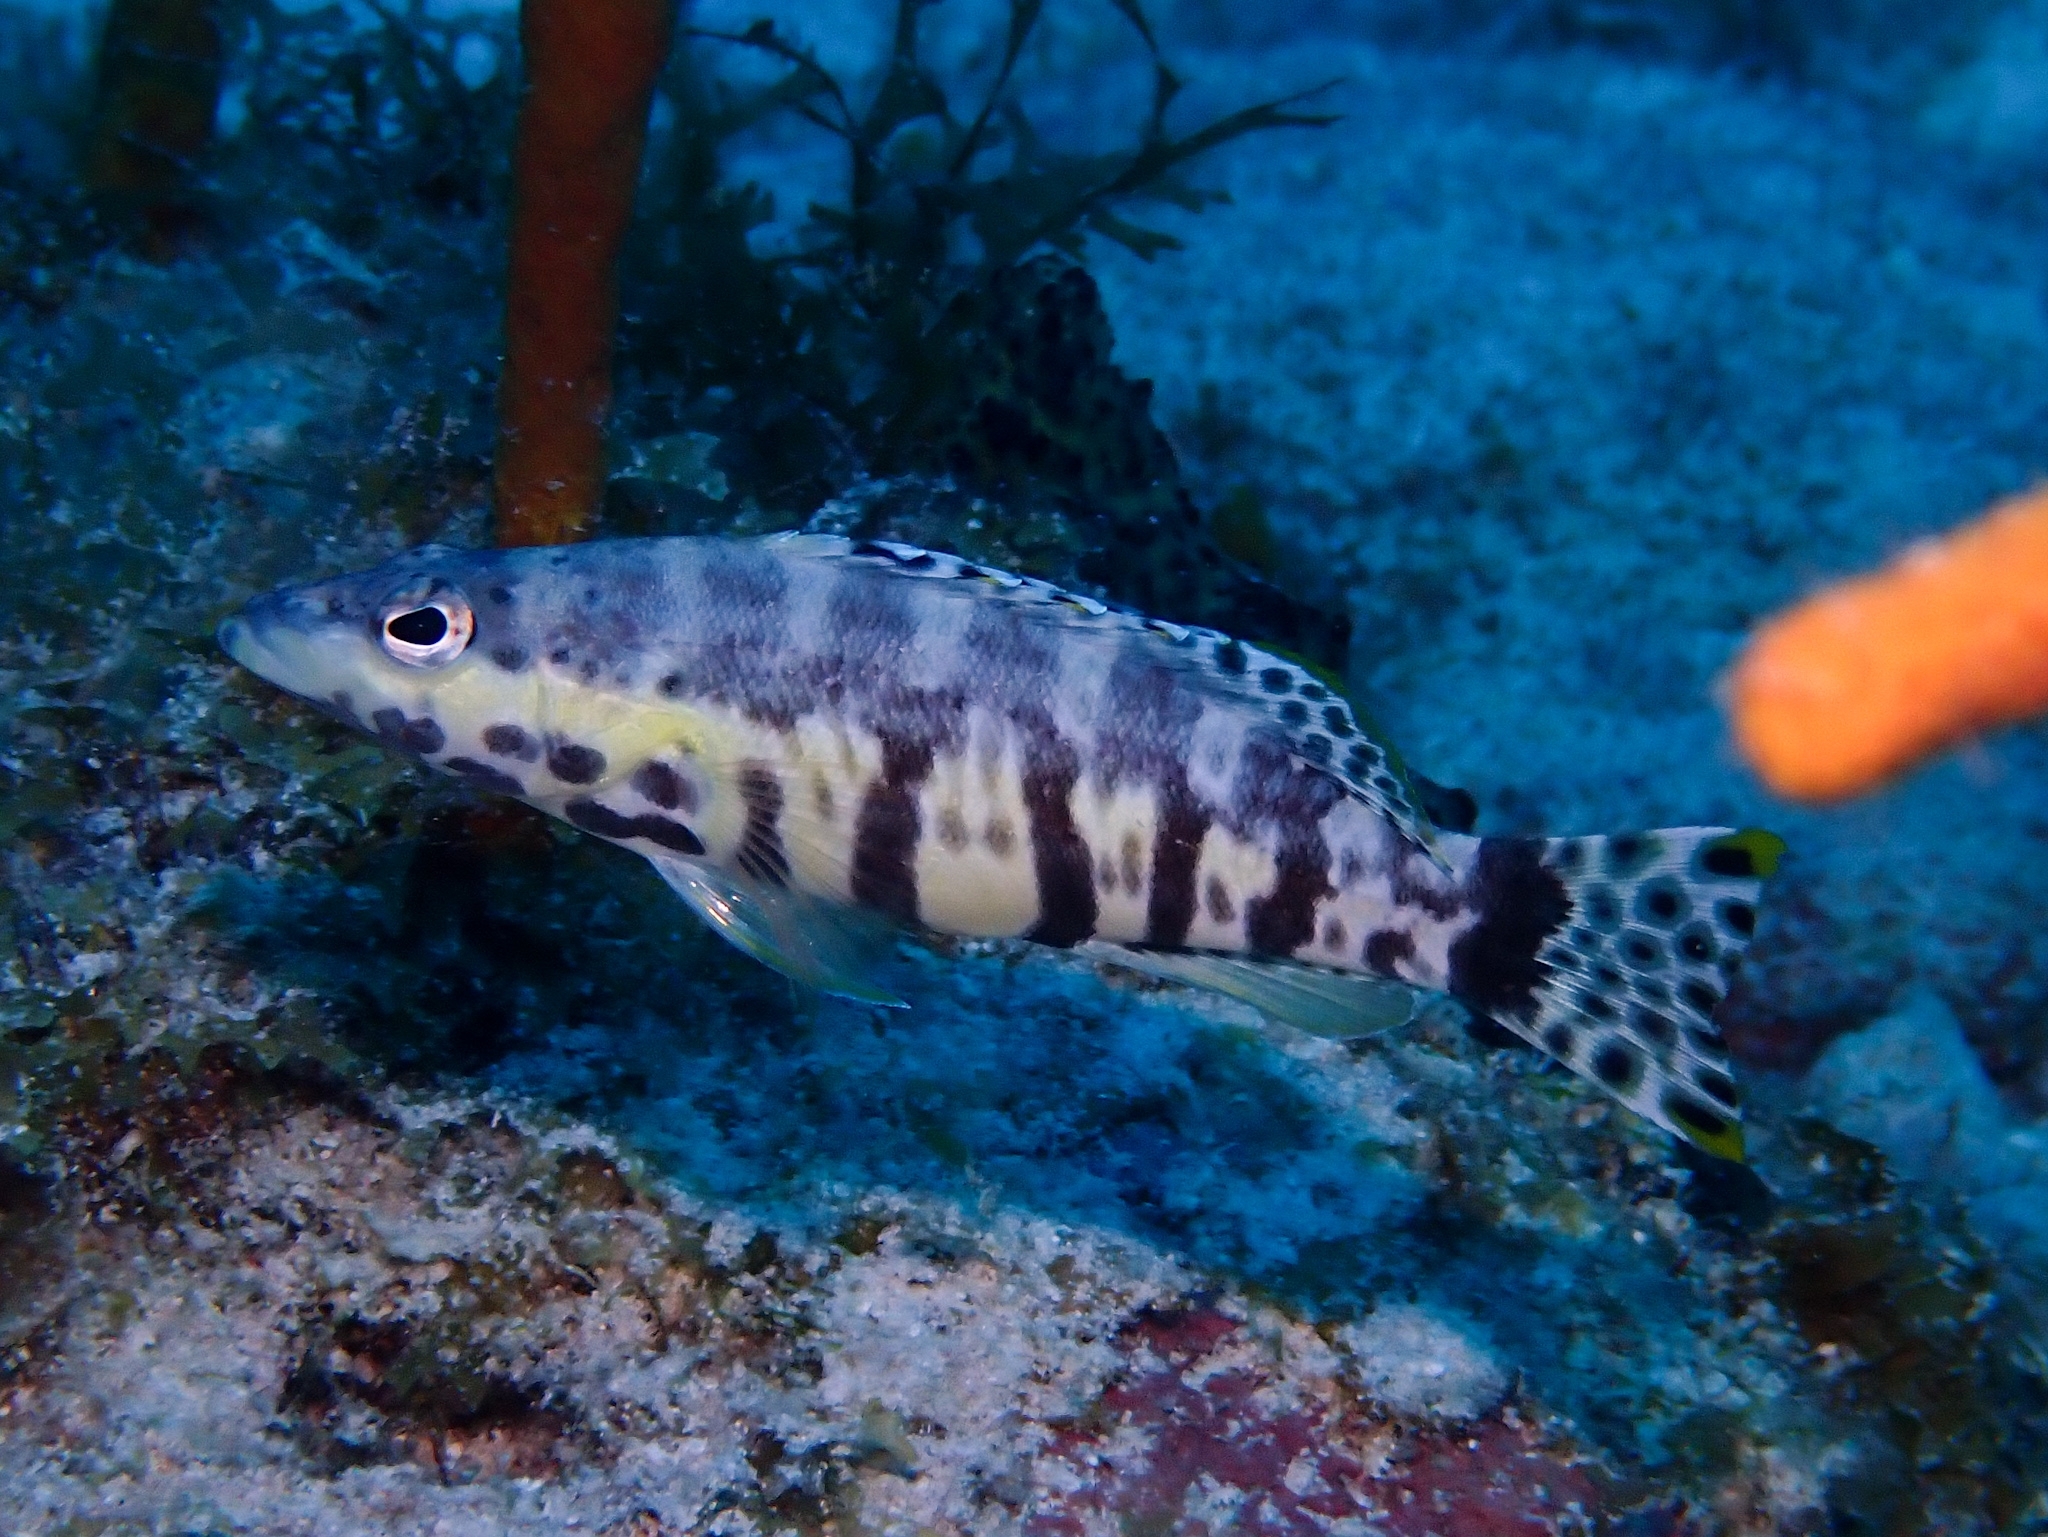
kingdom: Animalia
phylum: Chordata
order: Perciformes
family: Serranidae
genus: Serranus
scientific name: Serranus tigrinus
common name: Harlequin bass
